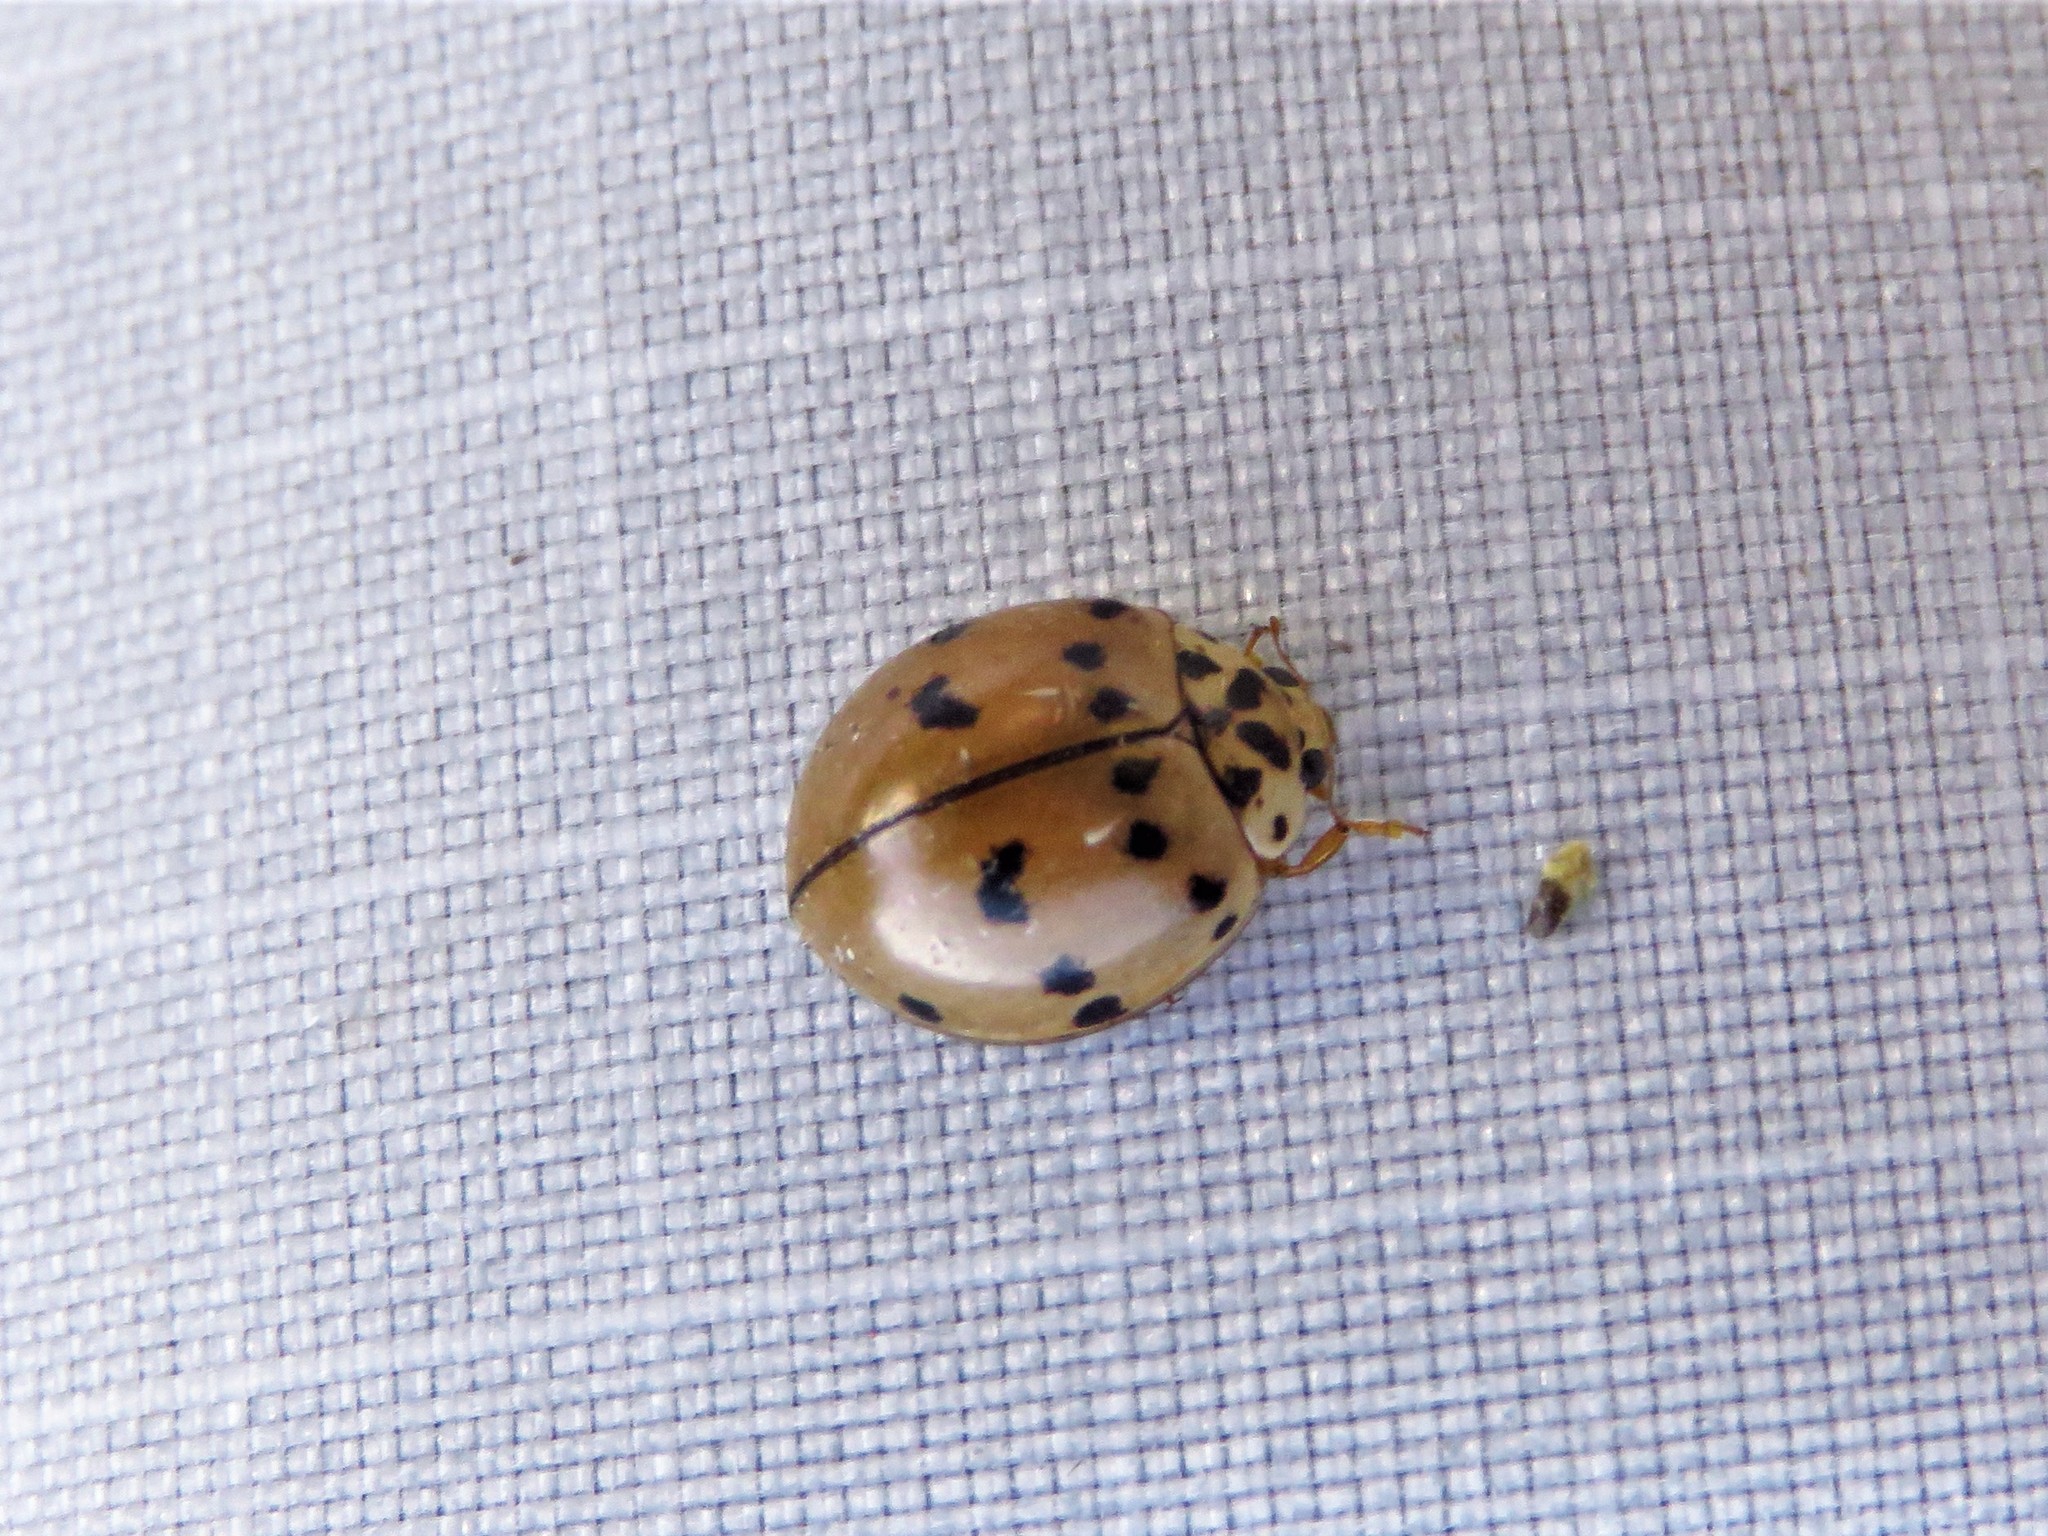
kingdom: Animalia
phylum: Arthropoda
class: Insecta
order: Coleoptera
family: Coccinellidae
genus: Olla
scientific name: Olla v-nigrum
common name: Ashy gray lady beetle
